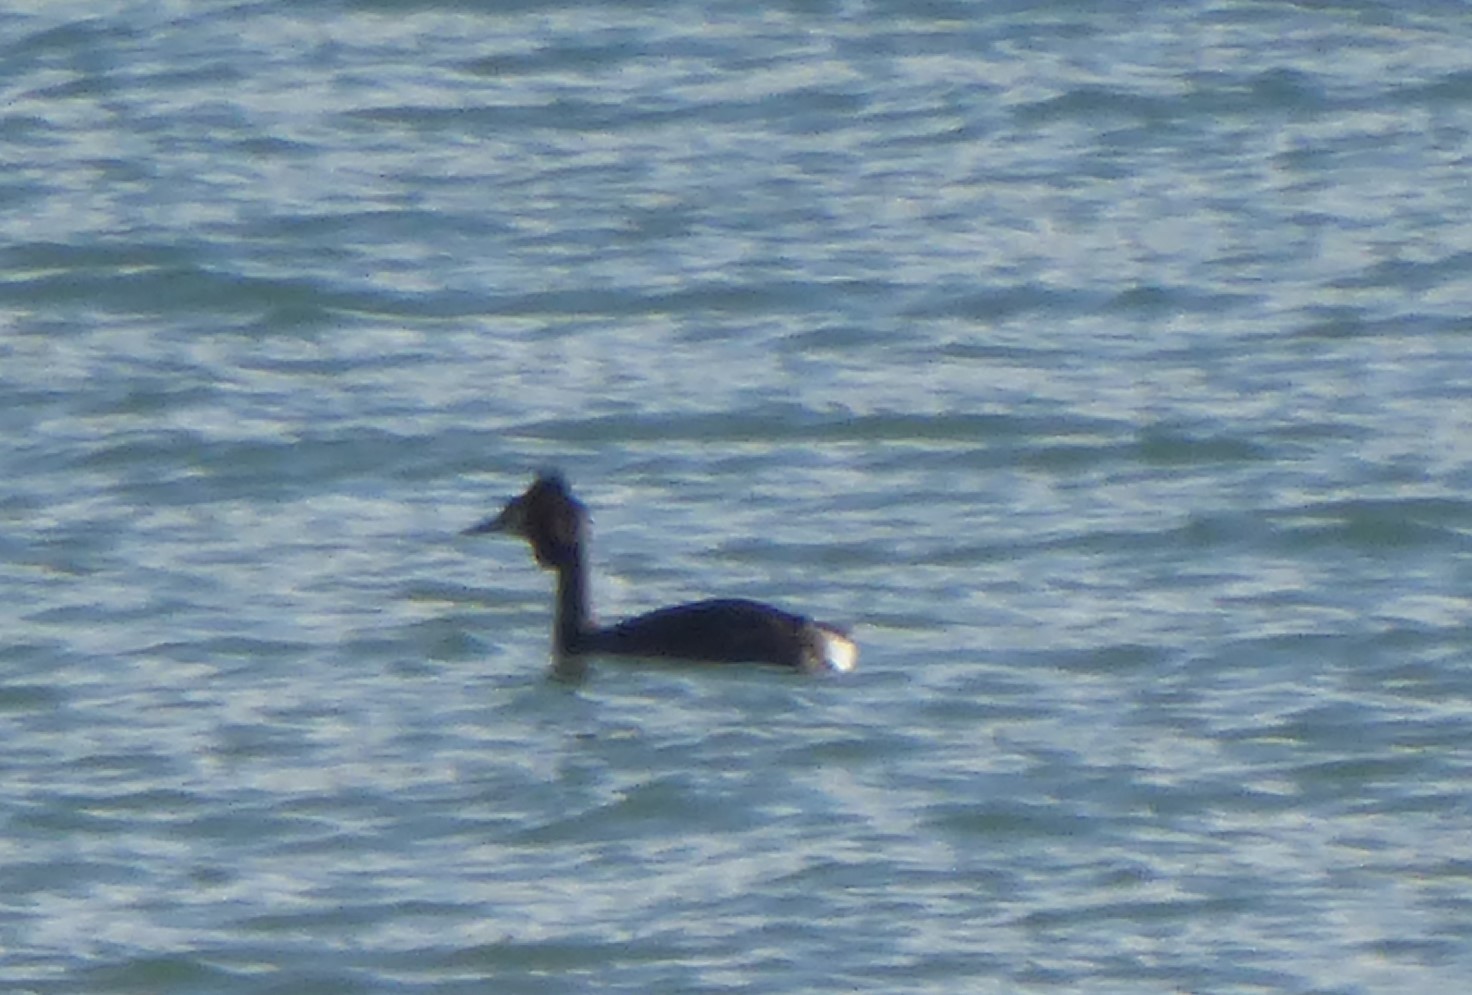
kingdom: Animalia
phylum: Chordata
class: Aves
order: Podicipediformes
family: Podicipedidae
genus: Podiceps
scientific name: Podiceps cristatus
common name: Great crested grebe
